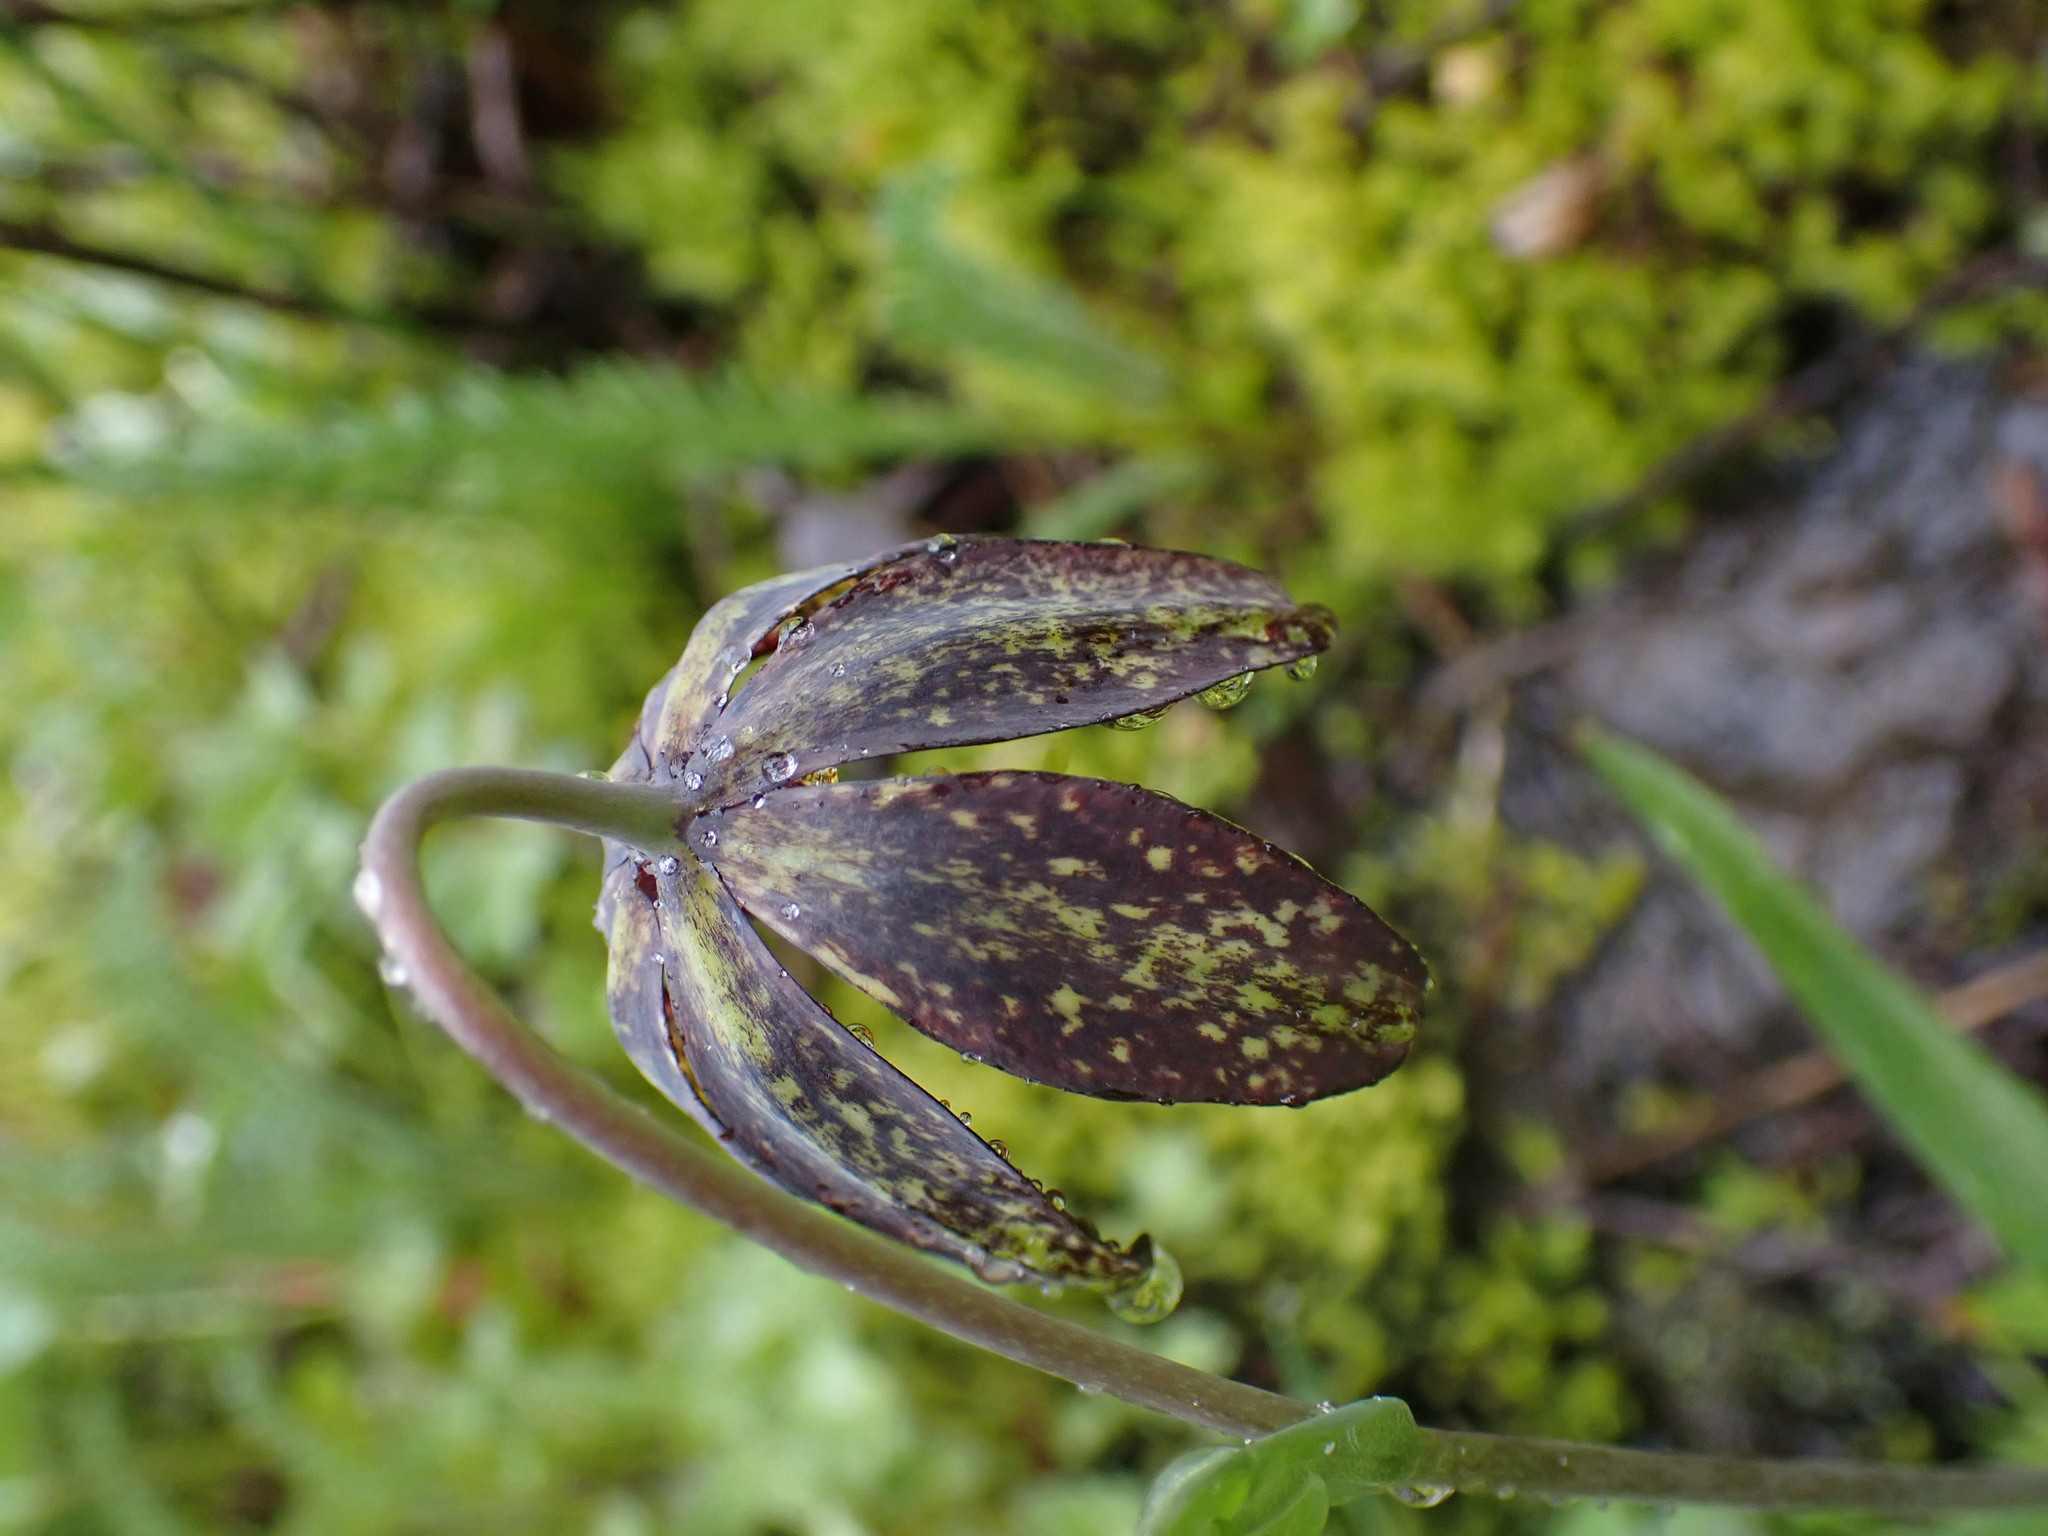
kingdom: Plantae
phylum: Tracheophyta
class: Liliopsida
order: Liliales
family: Liliaceae
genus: Fritillaria
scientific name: Fritillaria affinis
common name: Ojai fritillary
